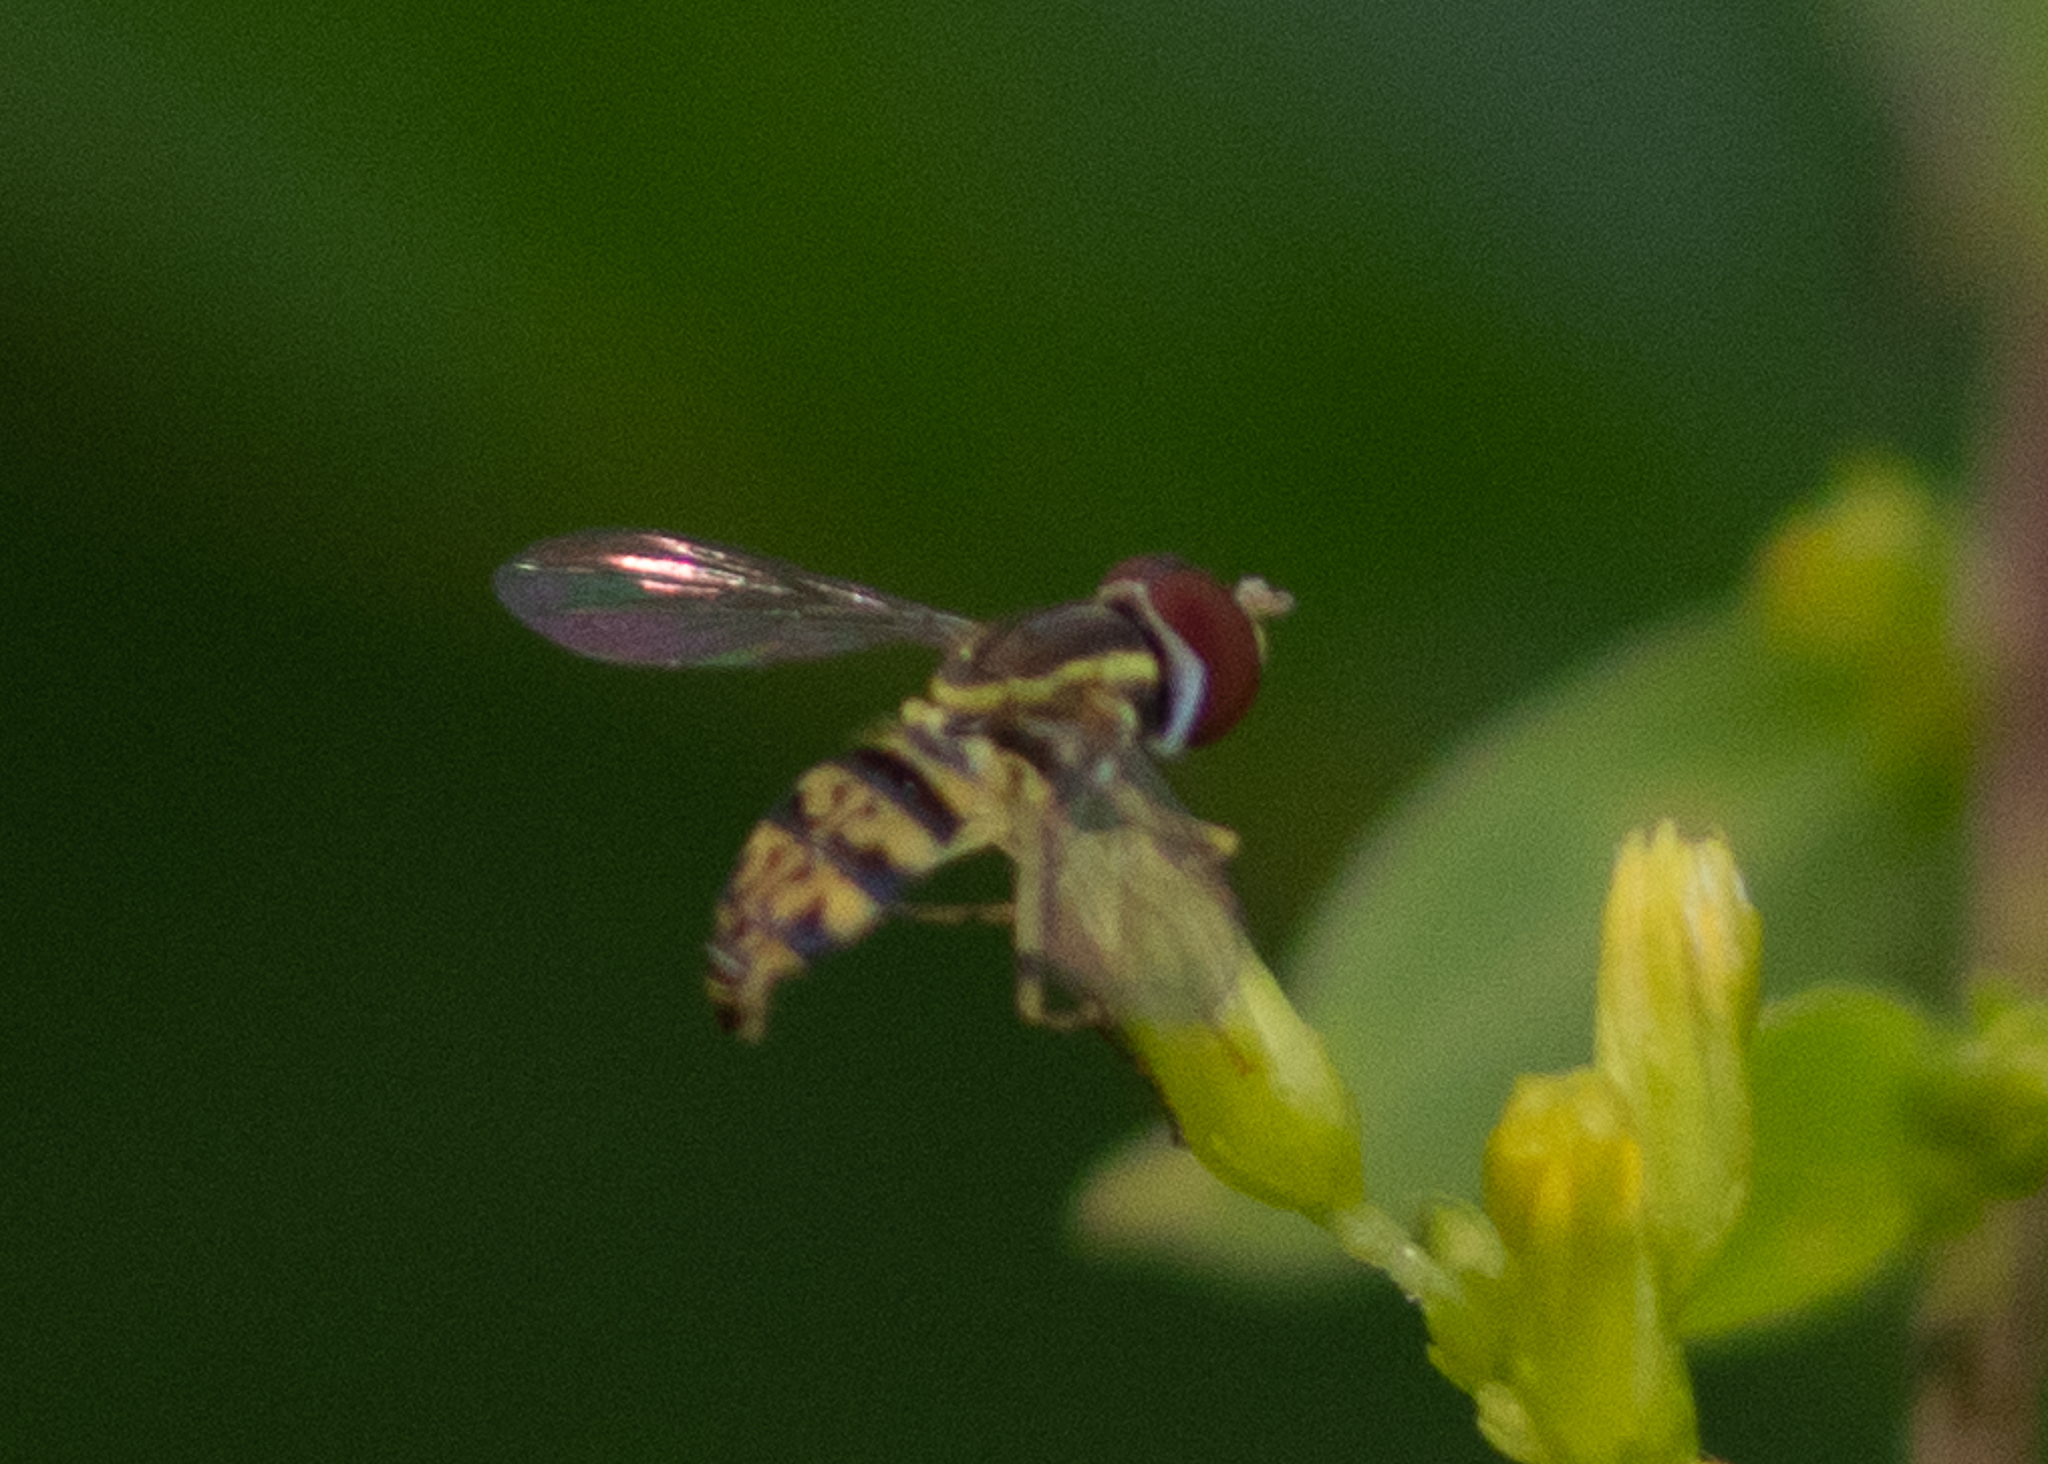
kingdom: Animalia
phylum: Arthropoda
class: Insecta
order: Diptera
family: Syrphidae
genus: Toxomerus
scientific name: Toxomerus geminatus
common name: Eastern calligrapher
